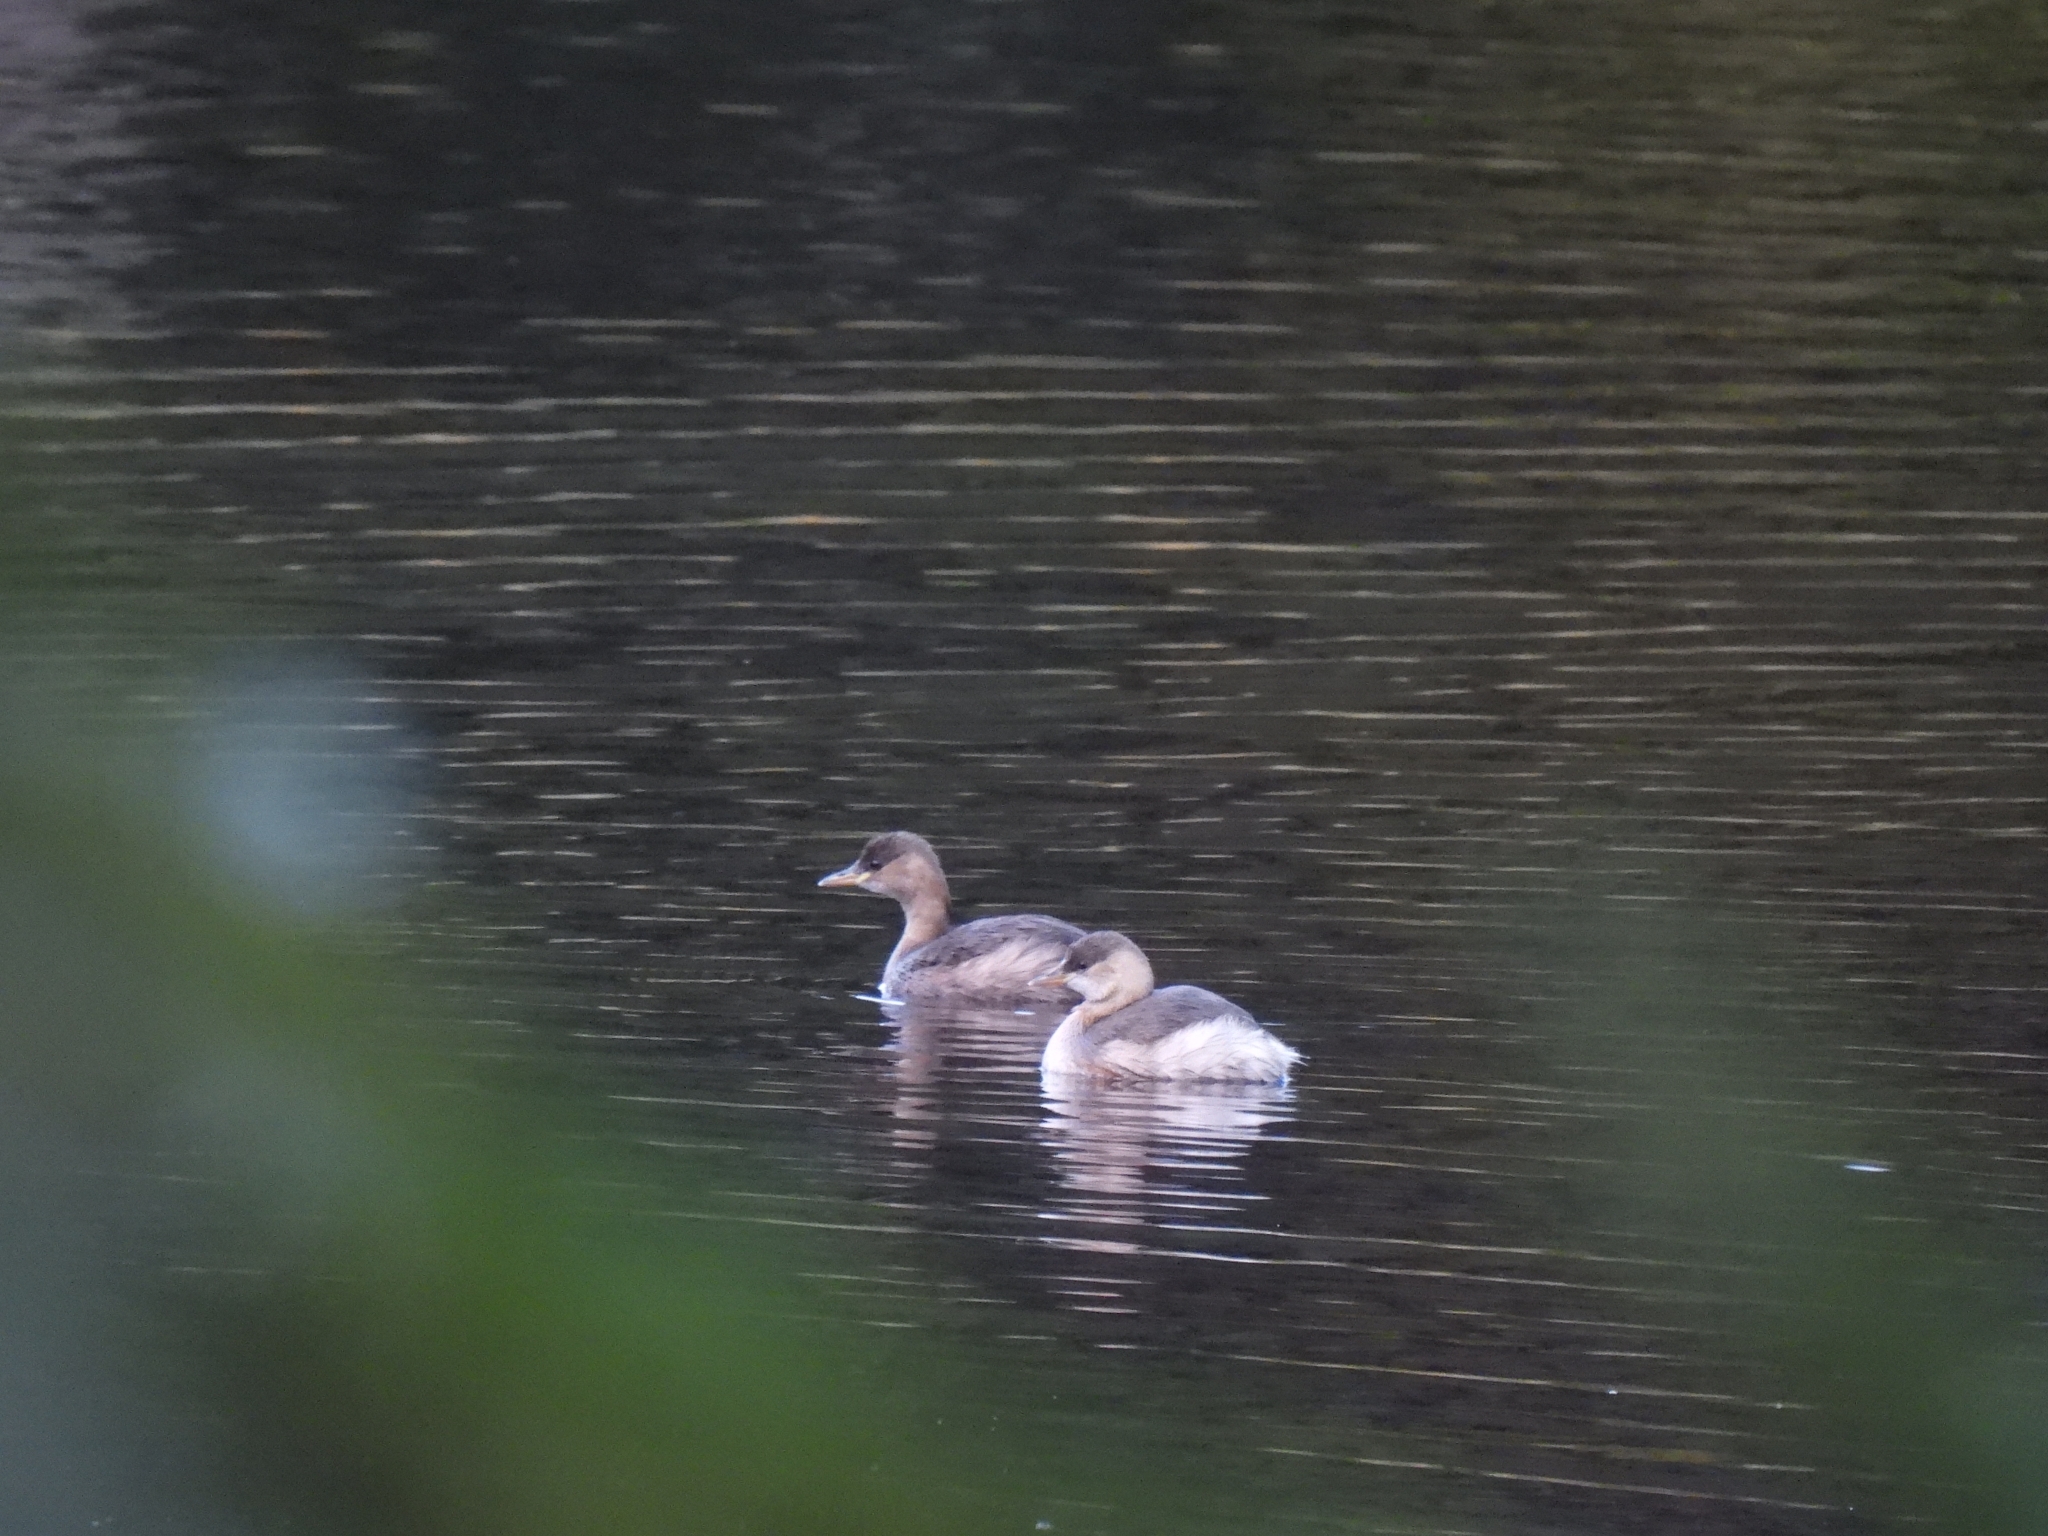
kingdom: Animalia
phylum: Chordata
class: Aves
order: Podicipediformes
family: Podicipedidae
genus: Tachybaptus
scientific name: Tachybaptus ruficollis
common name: Little grebe
